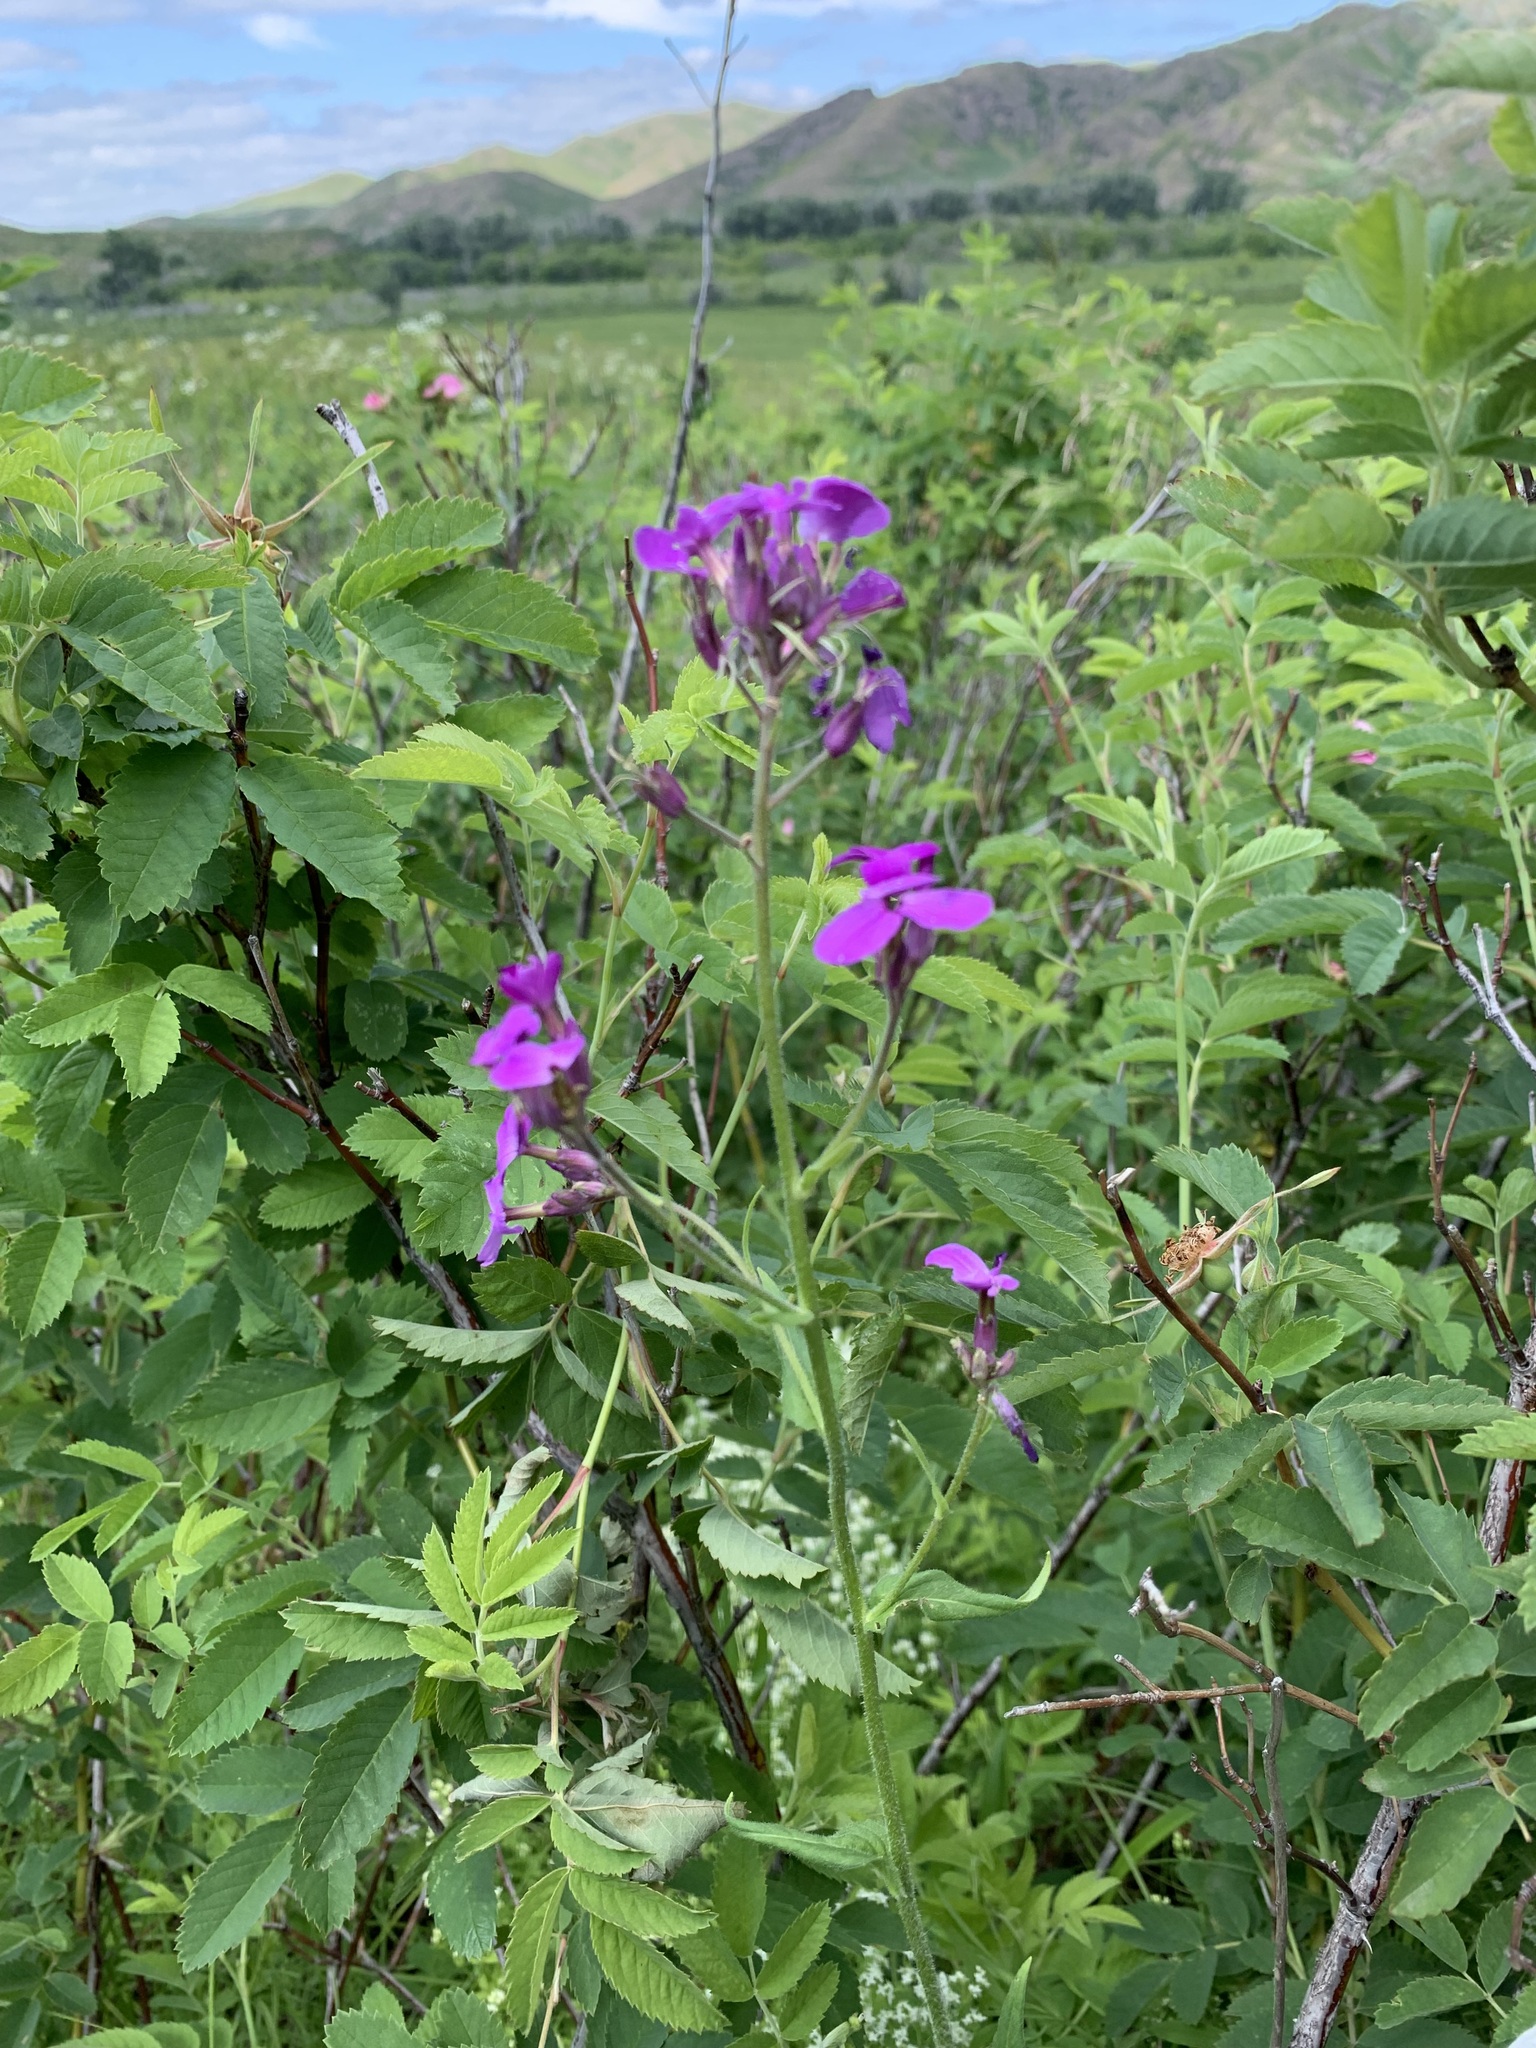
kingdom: Plantae
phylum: Tracheophyta
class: Magnoliopsida
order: Brassicales
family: Brassicaceae
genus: Hesperis
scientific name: Hesperis sibirica
